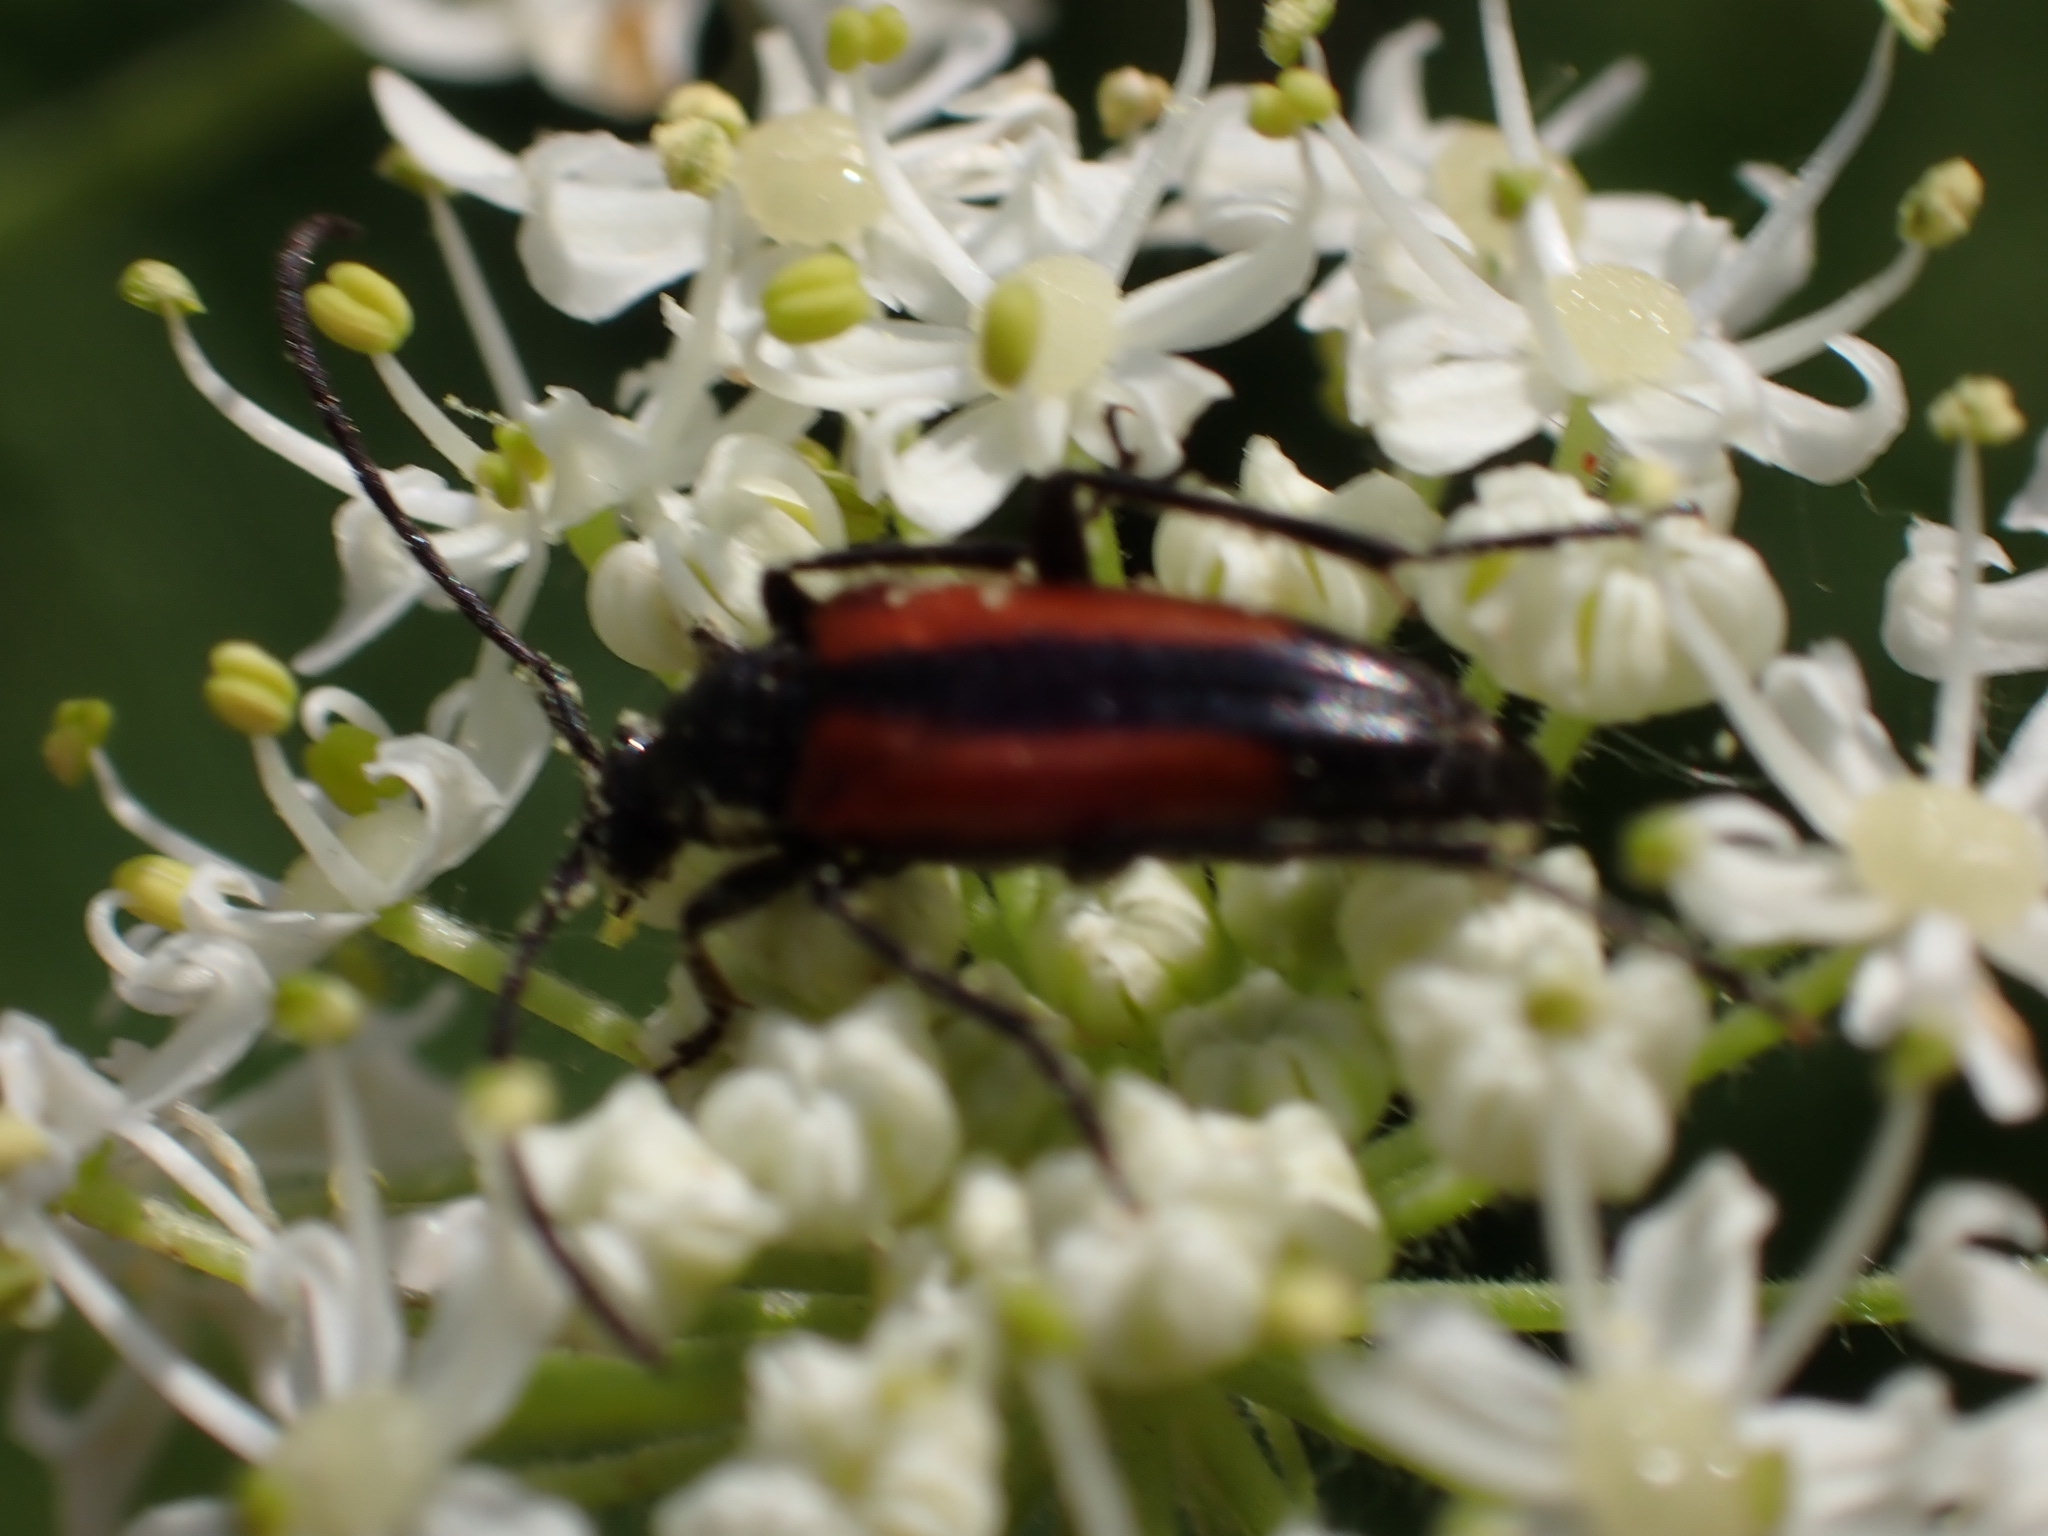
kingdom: Animalia
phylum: Arthropoda
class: Insecta
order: Coleoptera
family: Cerambycidae
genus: Stenurella
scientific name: Stenurella melanura
